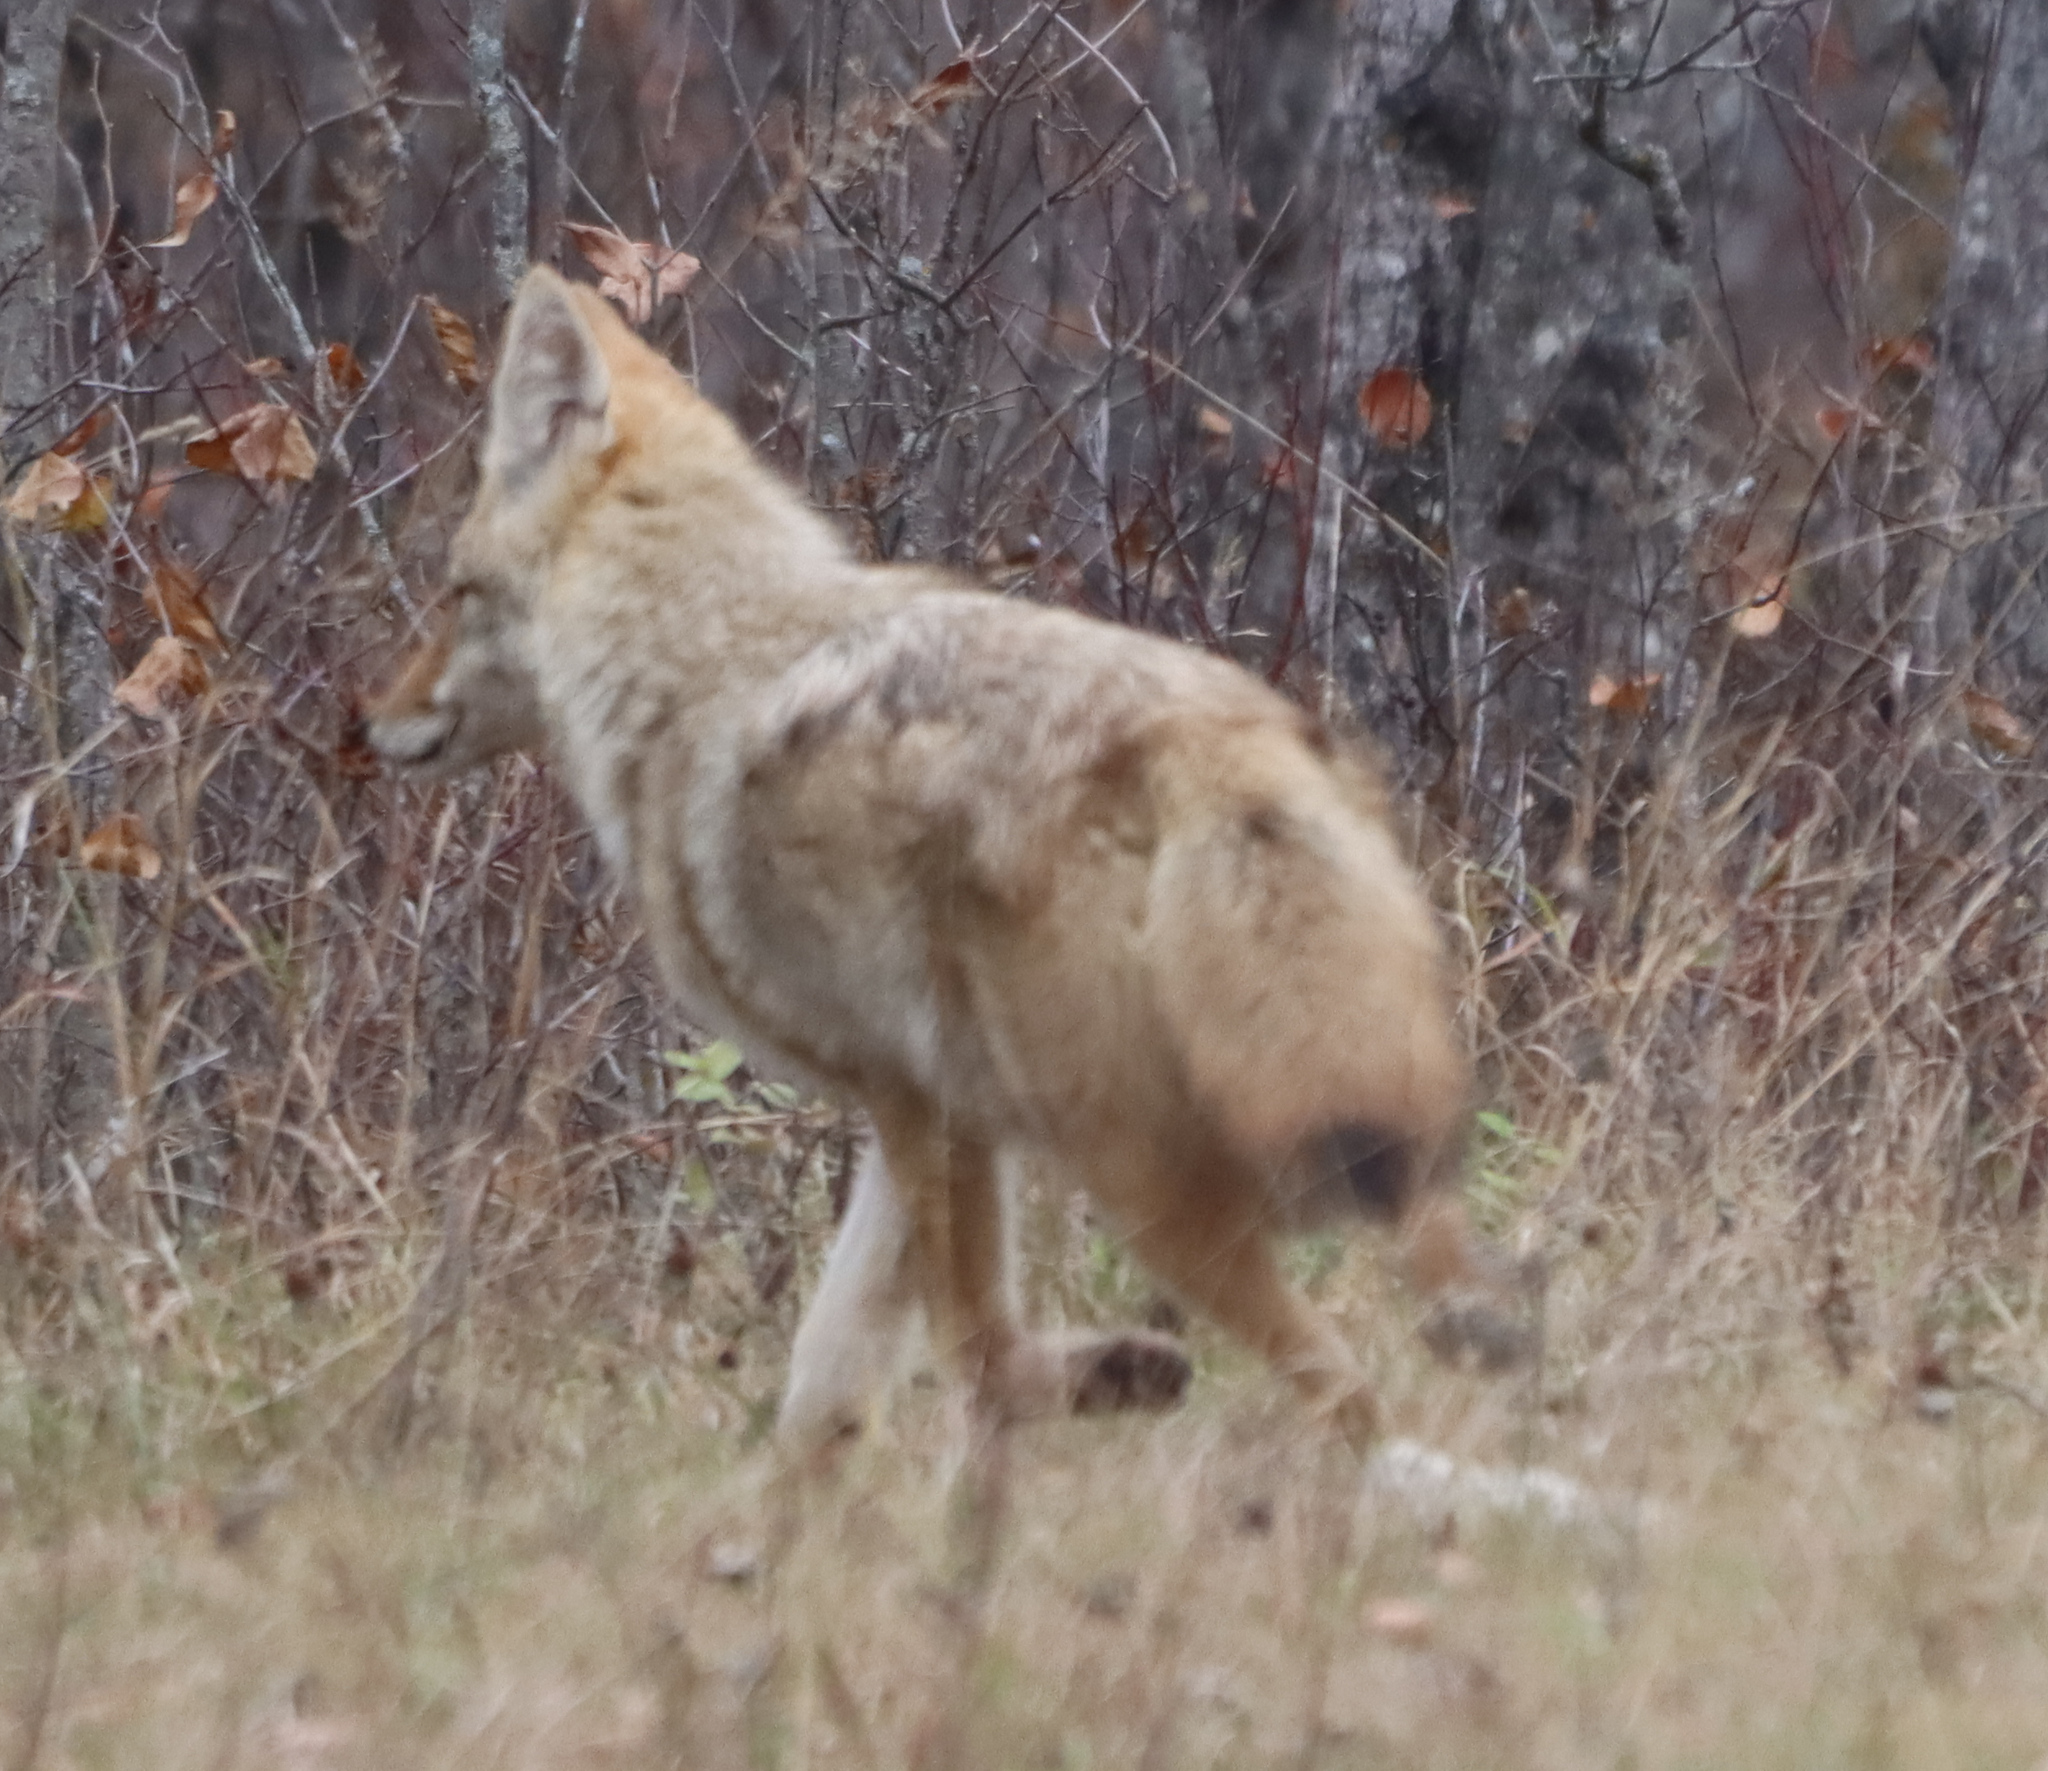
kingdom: Animalia
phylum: Chordata
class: Mammalia
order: Carnivora
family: Canidae
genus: Canis
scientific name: Canis latrans
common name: Coyote
